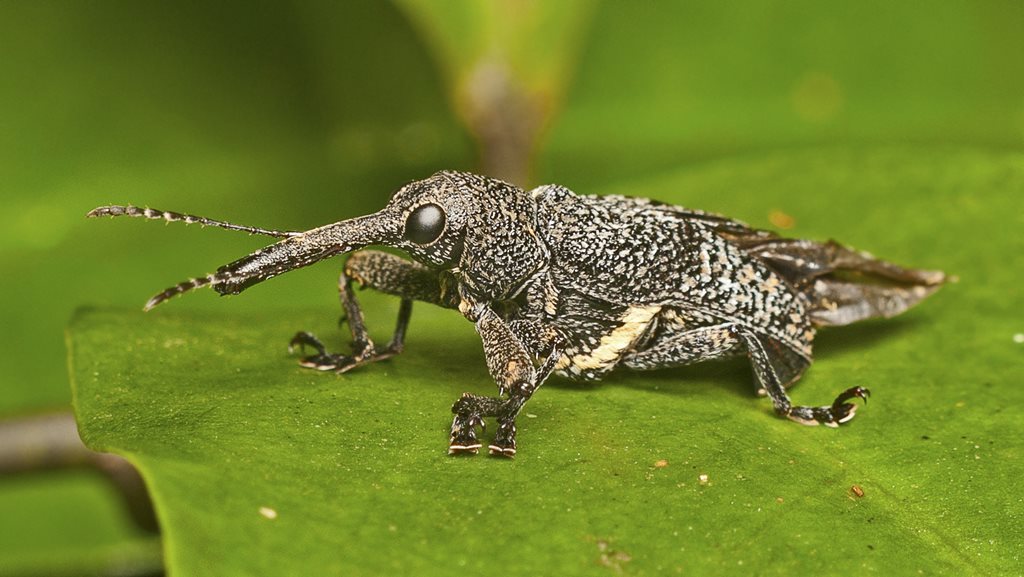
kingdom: Animalia
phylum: Arthropoda
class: Insecta
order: Coleoptera
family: Belidae
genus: Isacantha
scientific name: Isacantha rhinotioides
